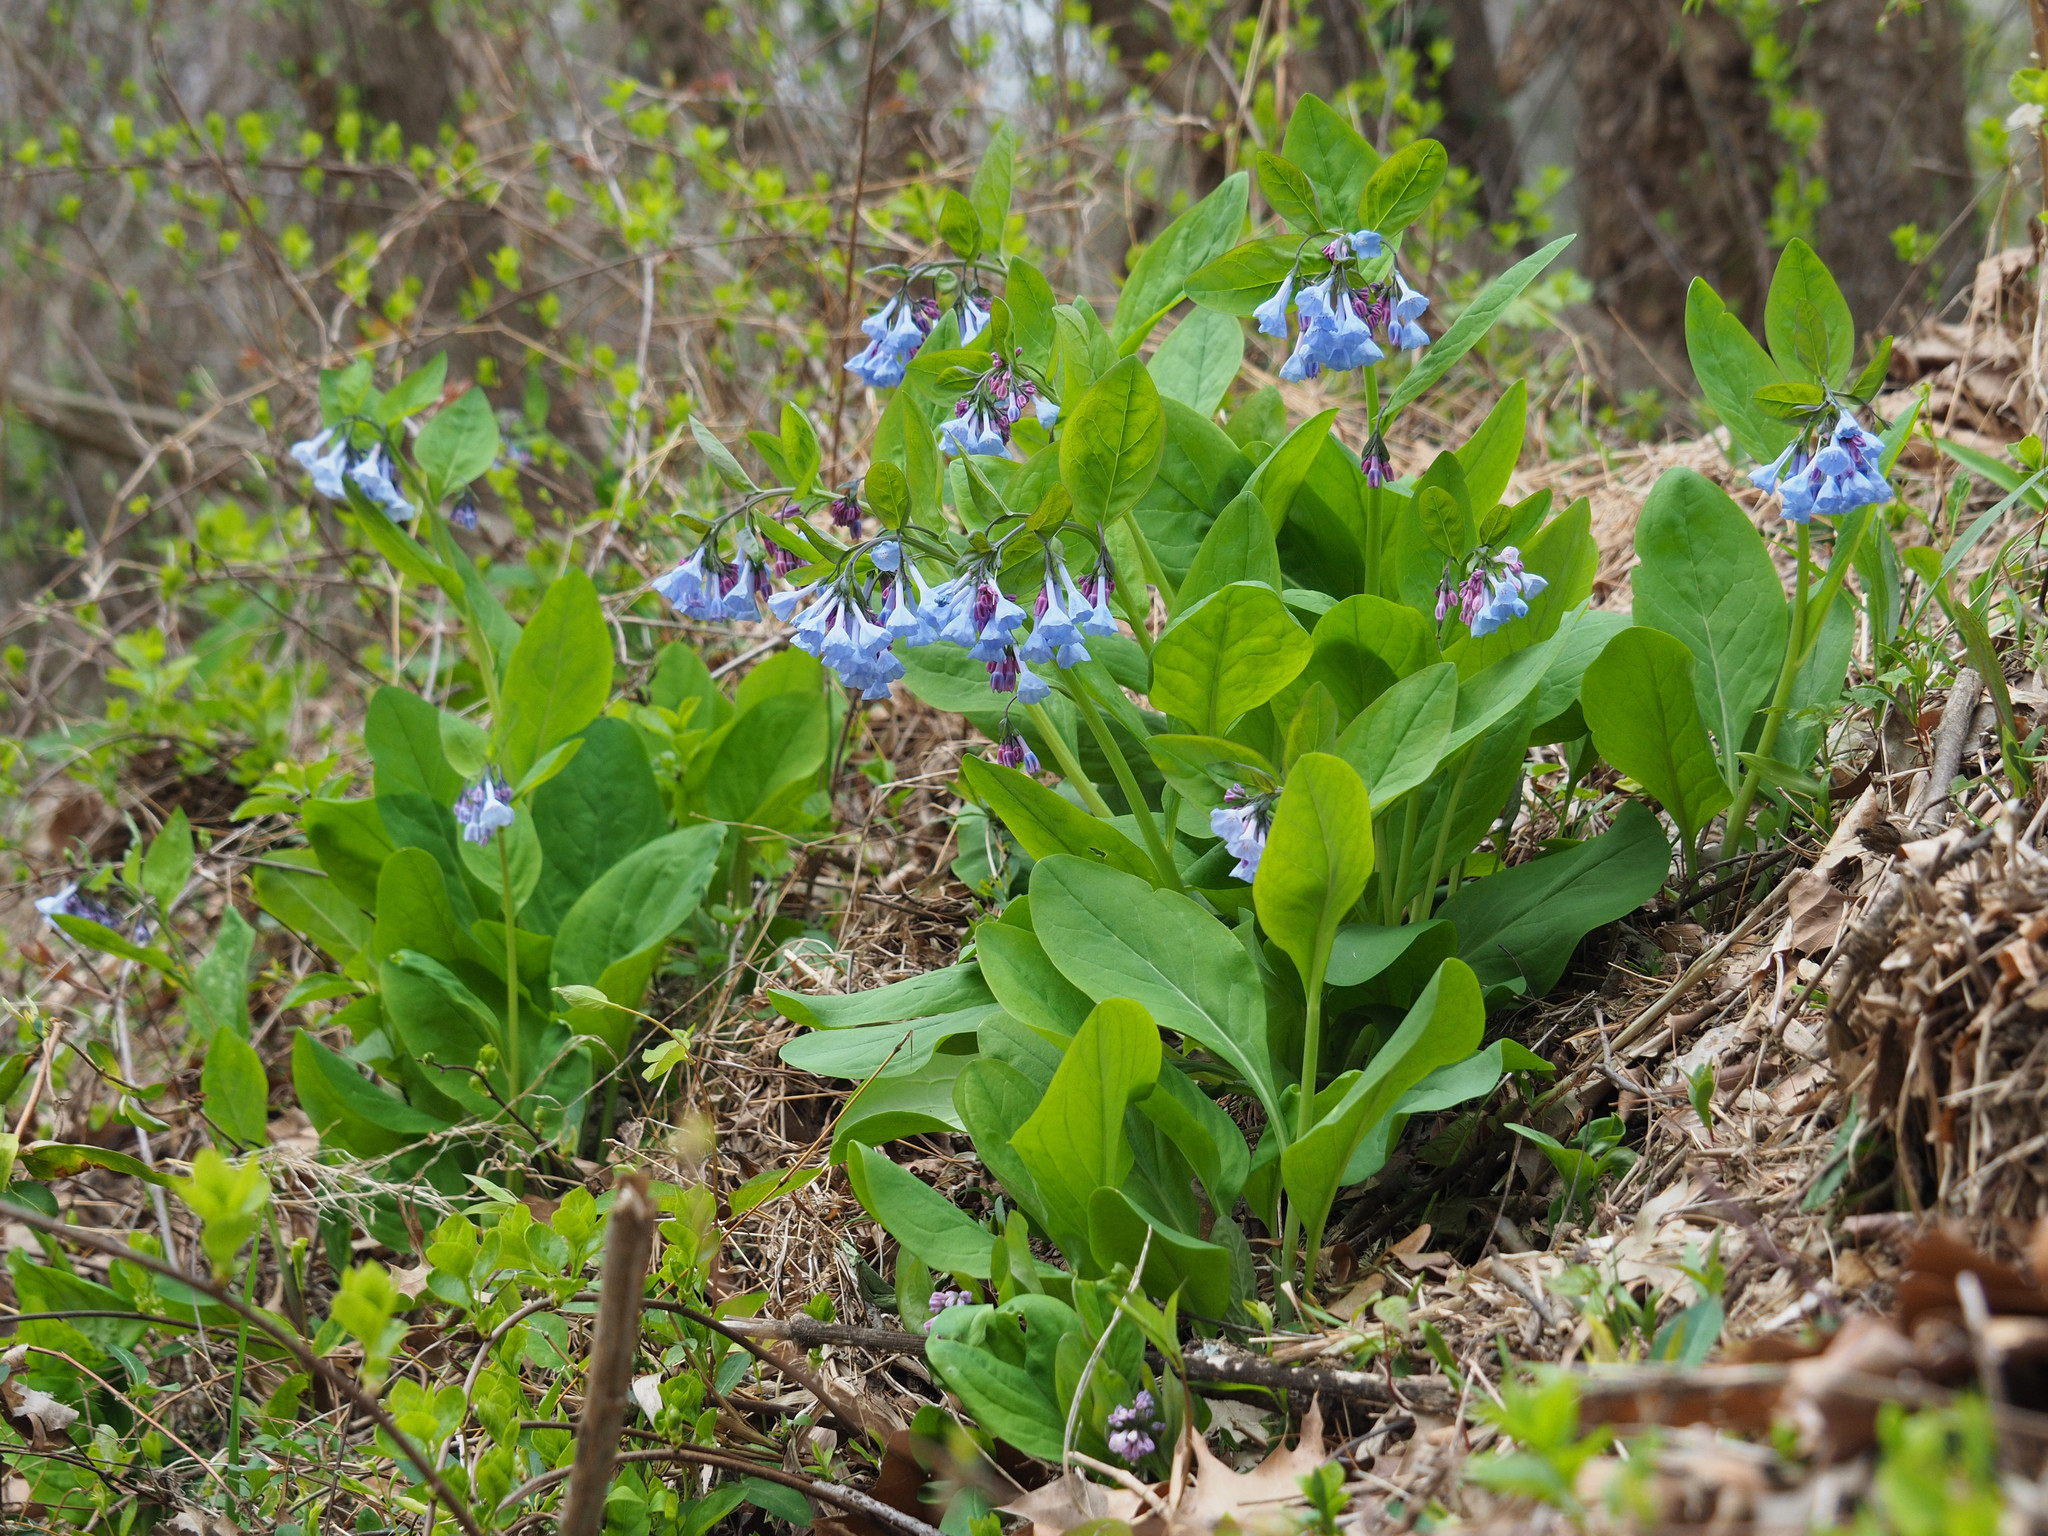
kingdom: Plantae
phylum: Tracheophyta
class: Magnoliopsida
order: Boraginales
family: Boraginaceae
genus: Mertensia
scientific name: Mertensia virginica
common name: Virginia bluebells
